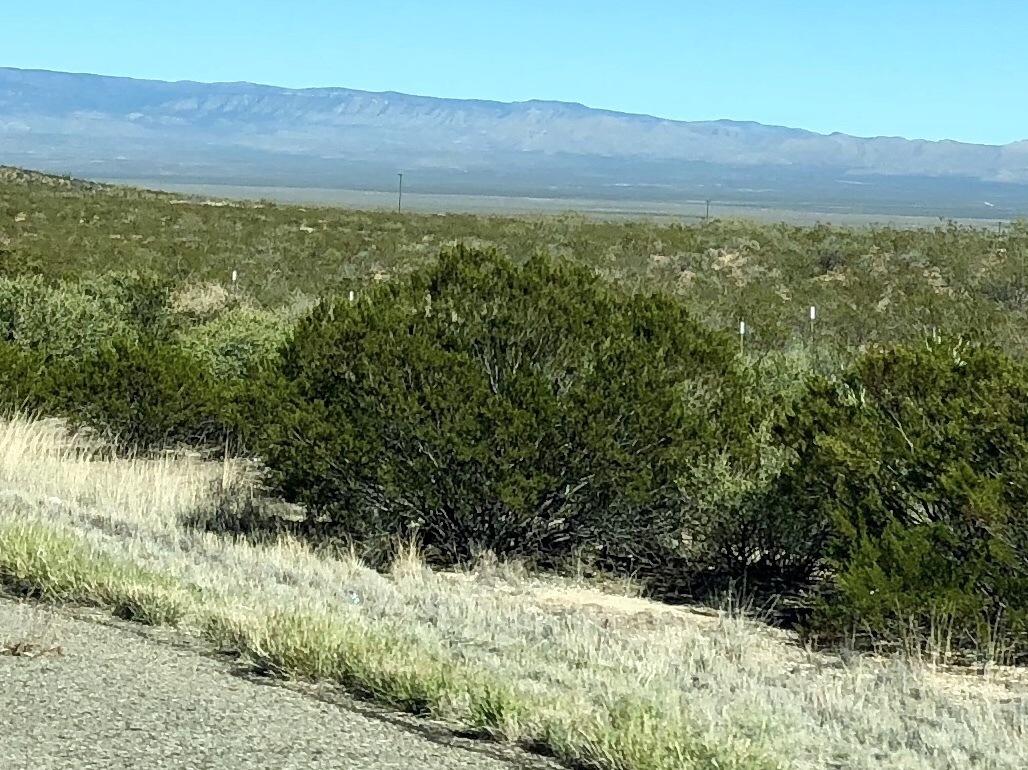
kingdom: Plantae
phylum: Tracheophyta
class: Magnoliopsida
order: Zygophyllales
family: Zygophyllaceae
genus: Larrea
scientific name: Larrea tridentata
